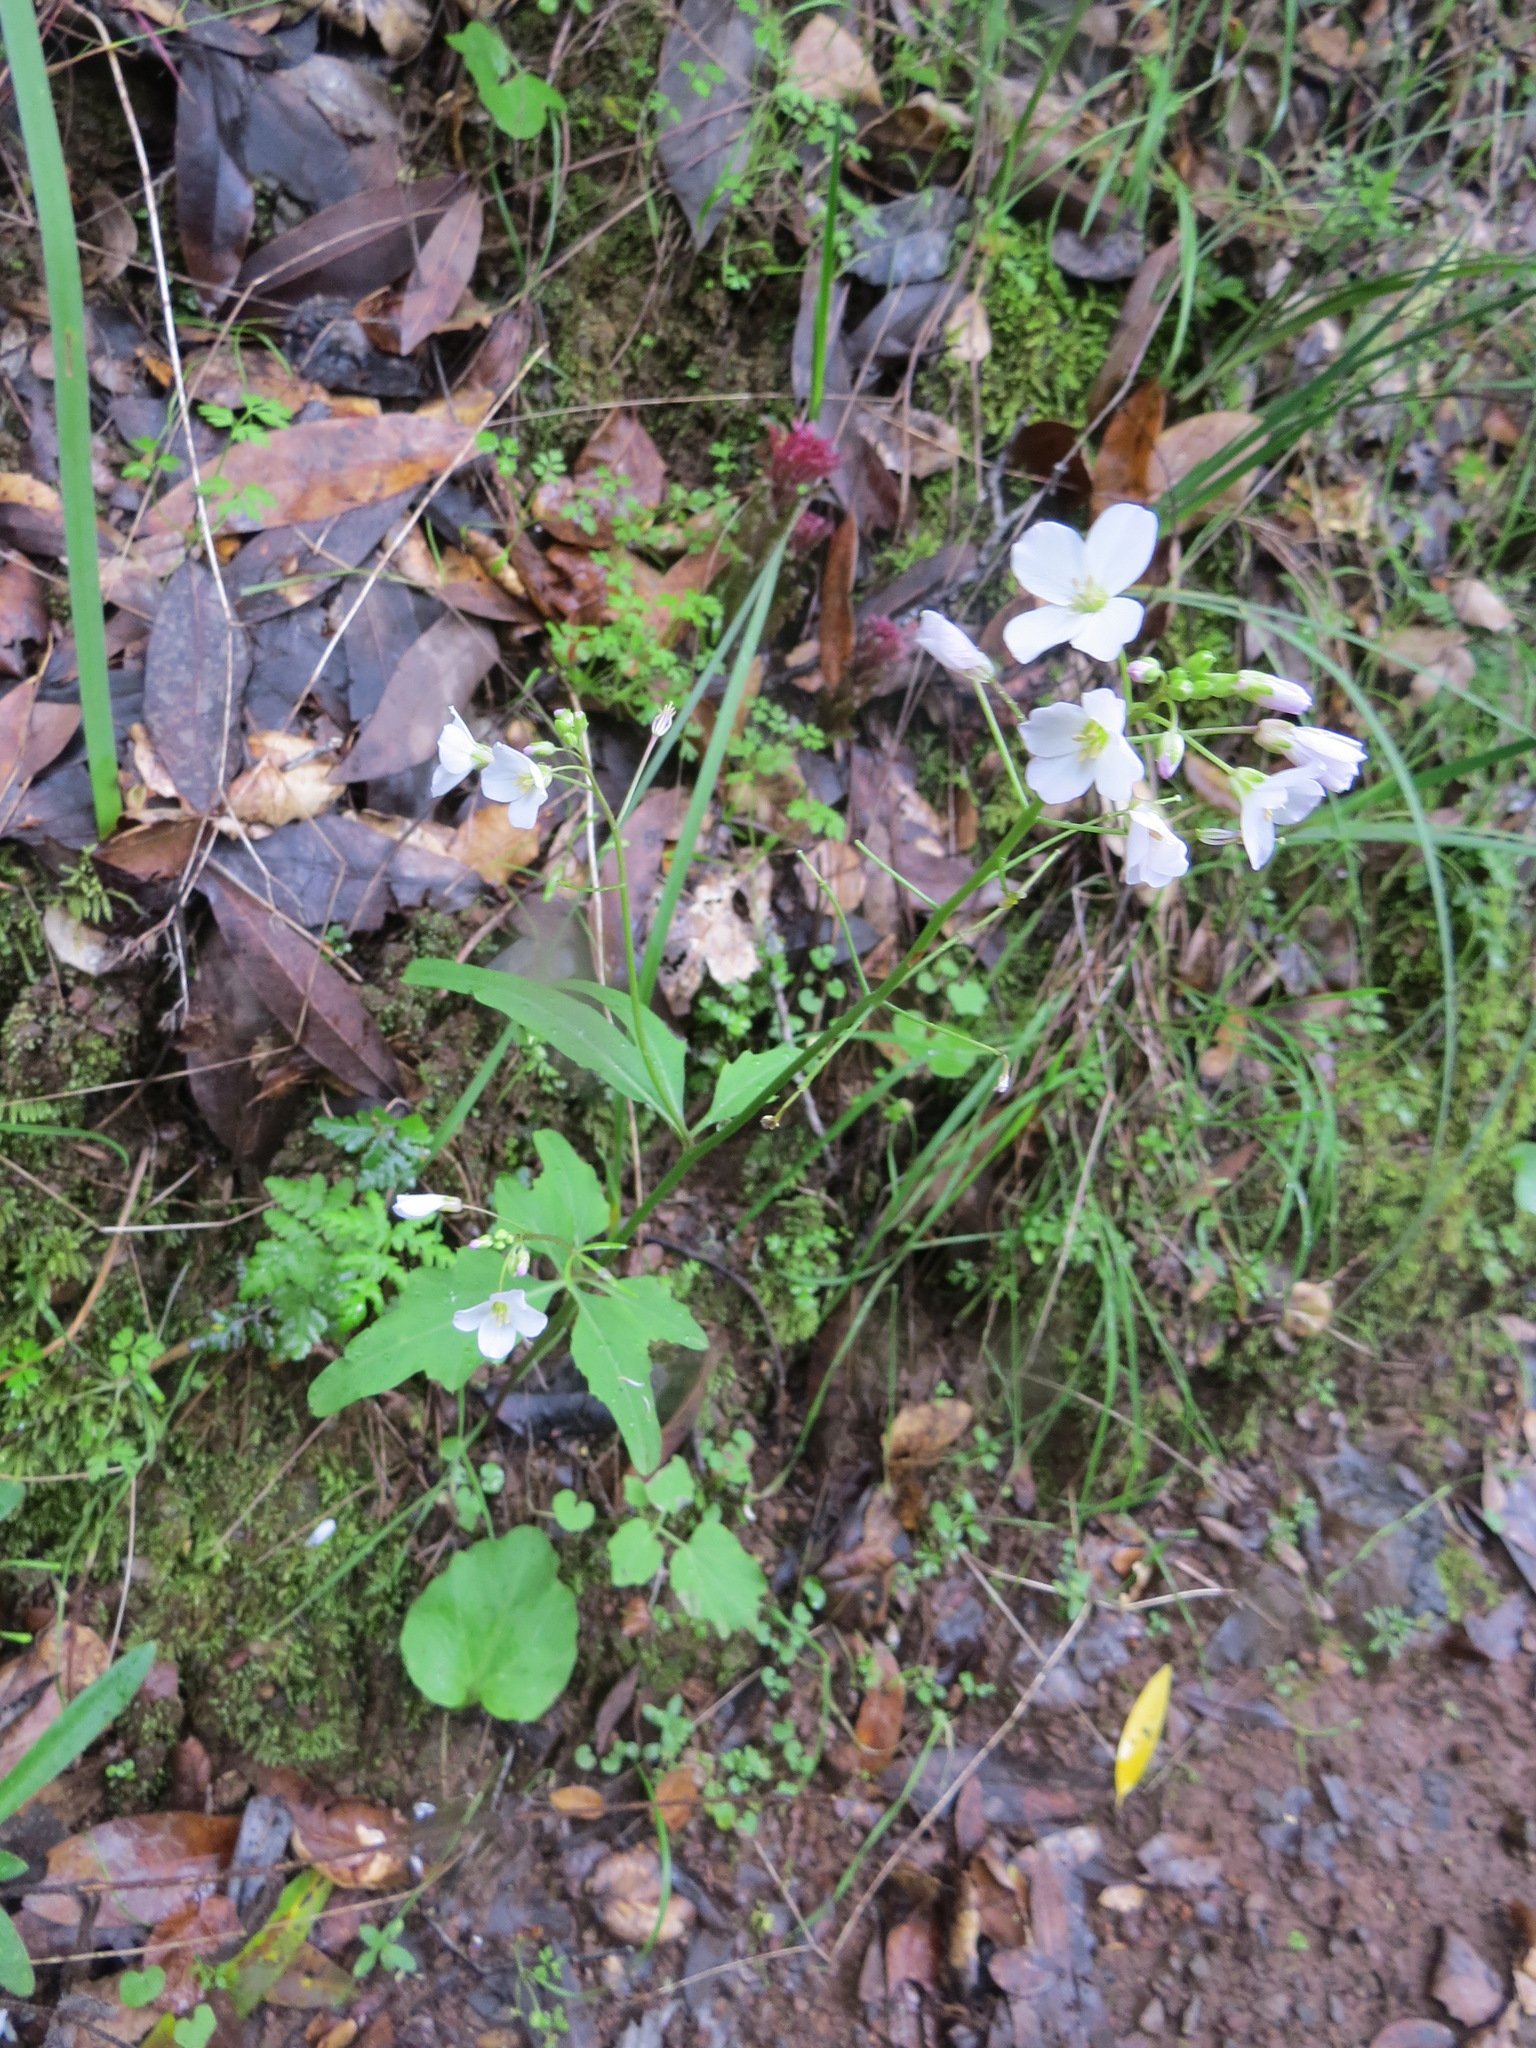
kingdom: Plantae
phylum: Tracheophyta
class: Magnoliopsida
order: Brassicales
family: Brassicaceae
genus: Cardamine
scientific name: Cardamine californica
